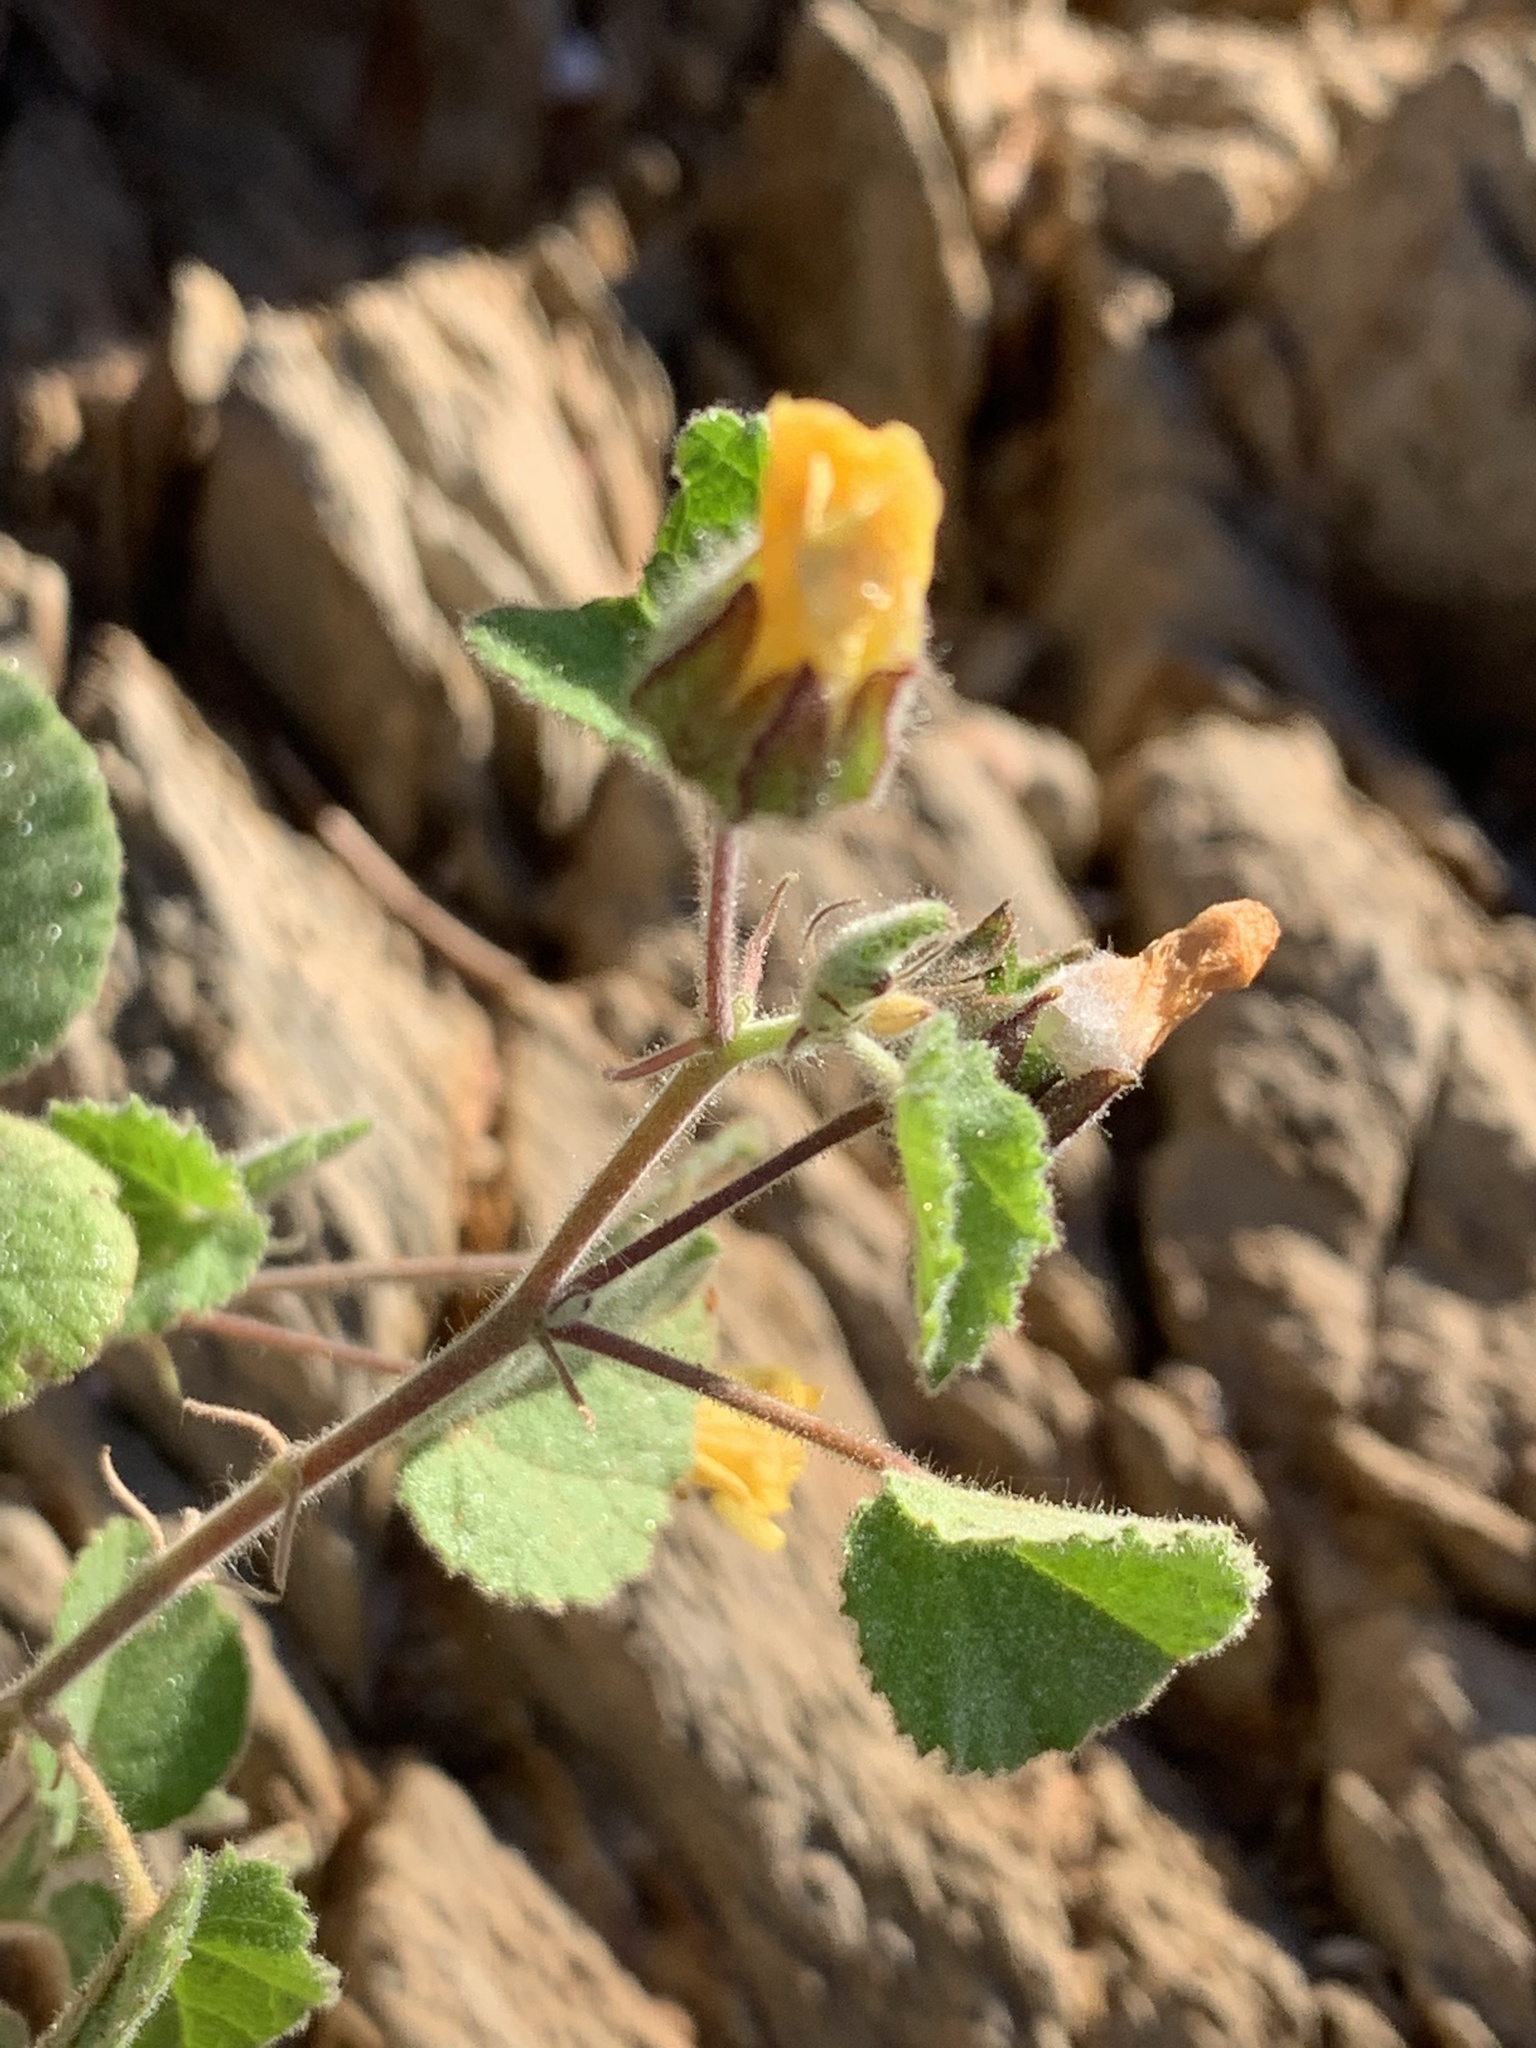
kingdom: Plantae
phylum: Tracheophyta
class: Magnoliopsida
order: Malvales
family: Malvaceae
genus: Abutilon
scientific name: Abutilon fraseri
